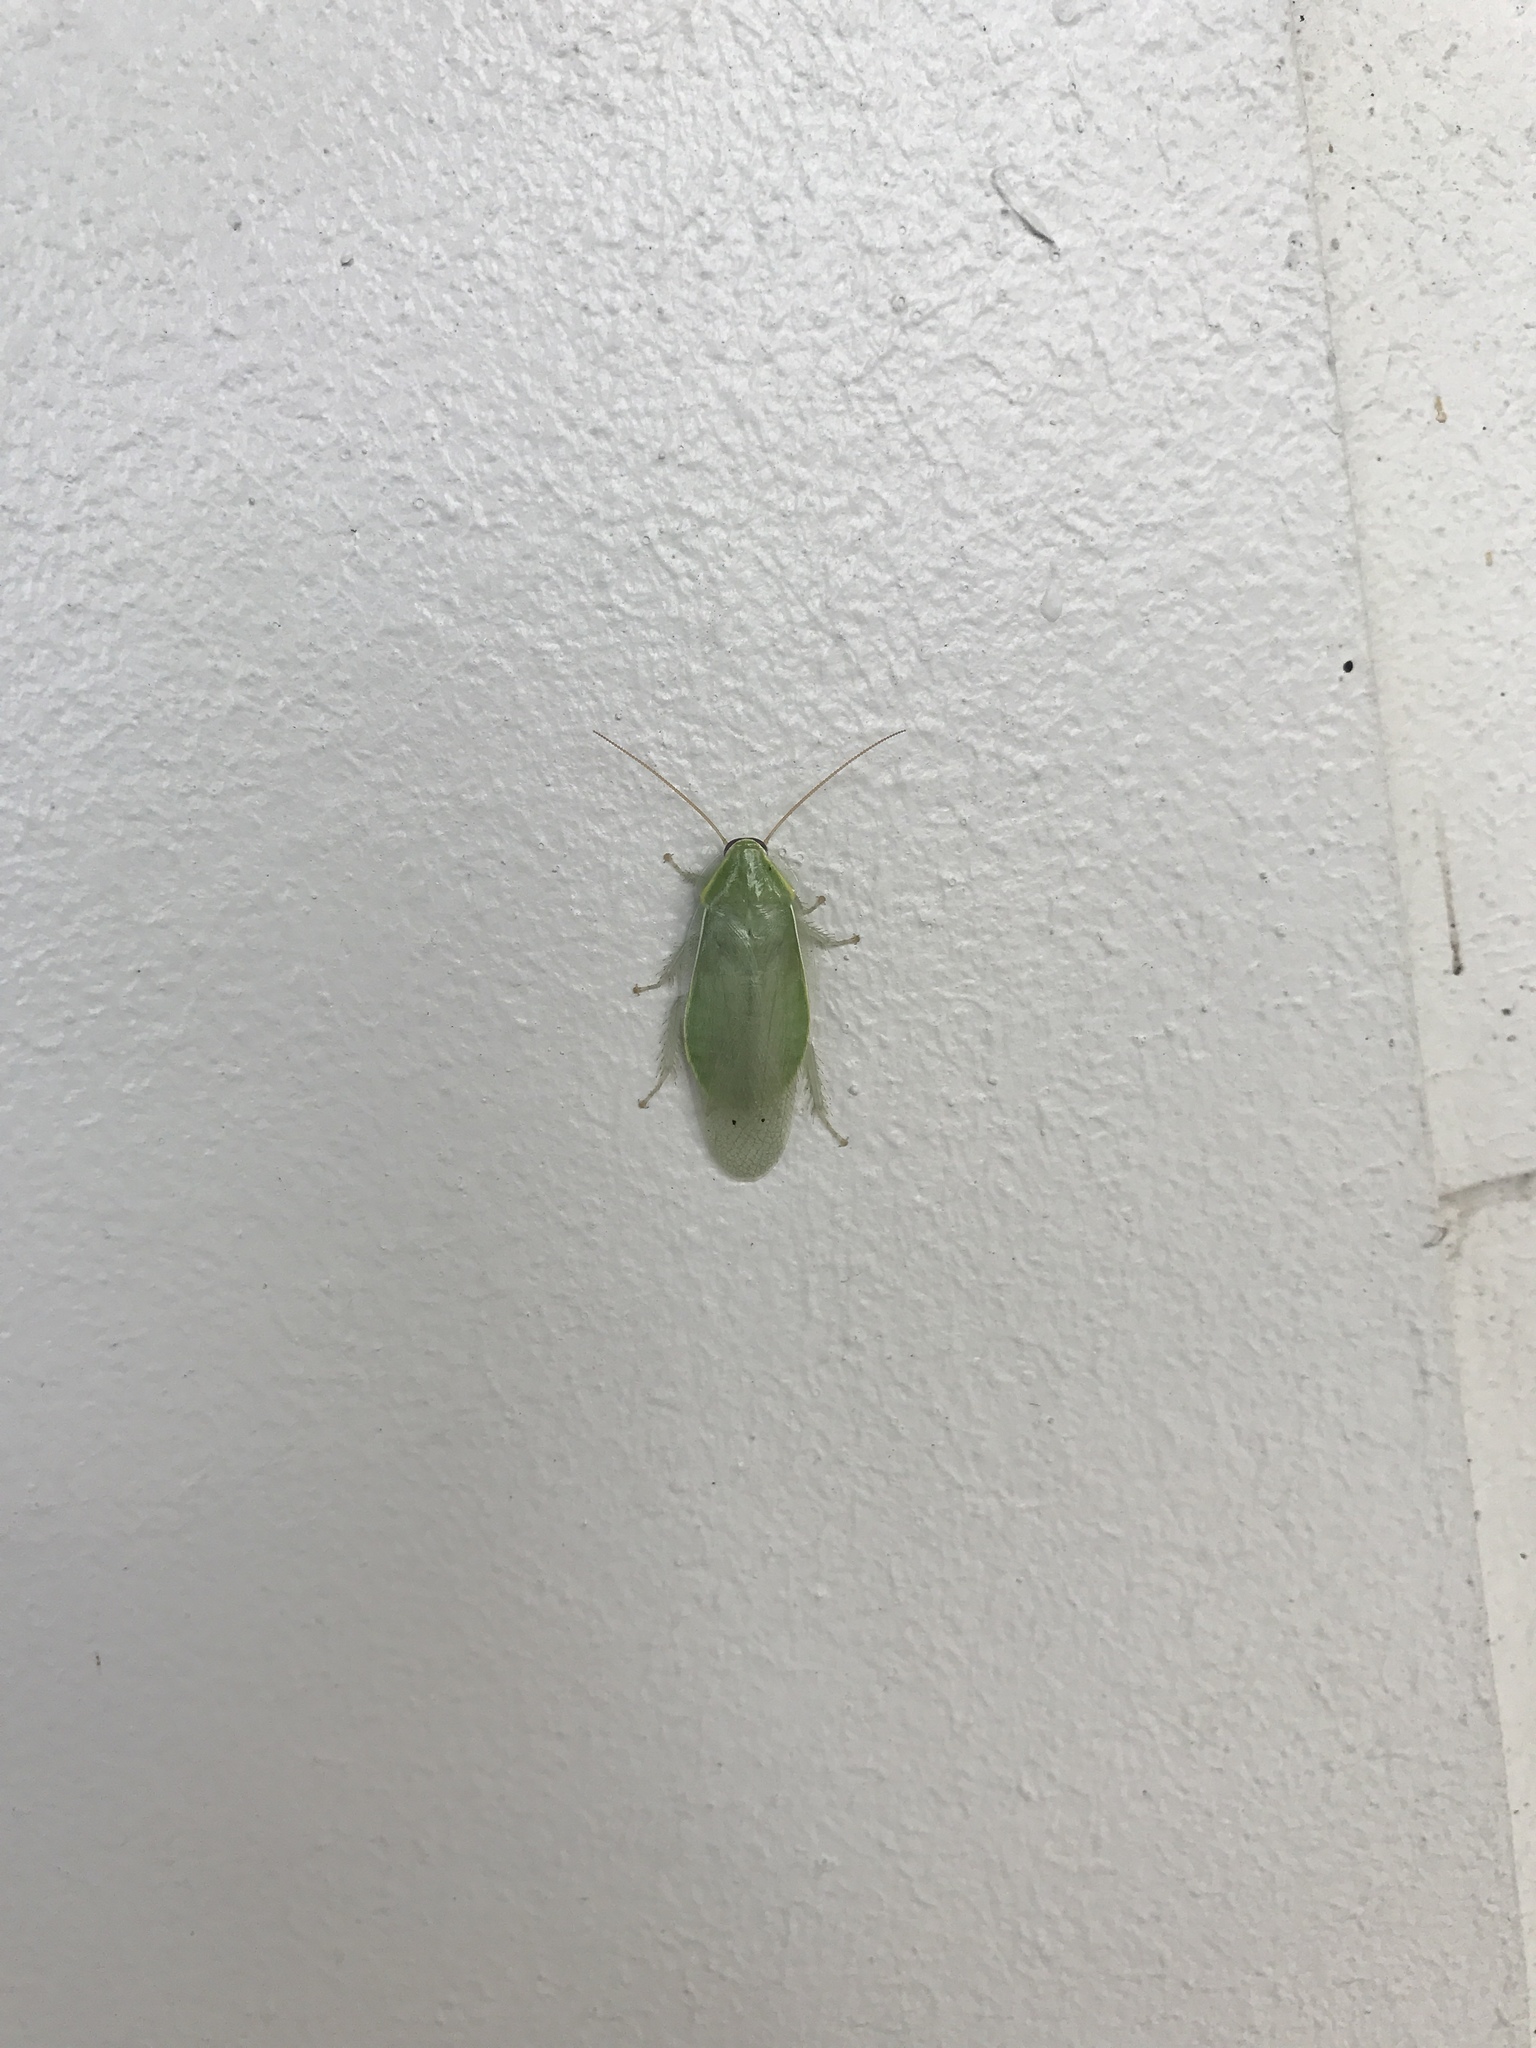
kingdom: Animalia
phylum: Arthropoda
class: Insecta
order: Blattodea
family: Blaberidae
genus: Panchlora
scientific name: Panchlora nivea
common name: Cuban cockroach
